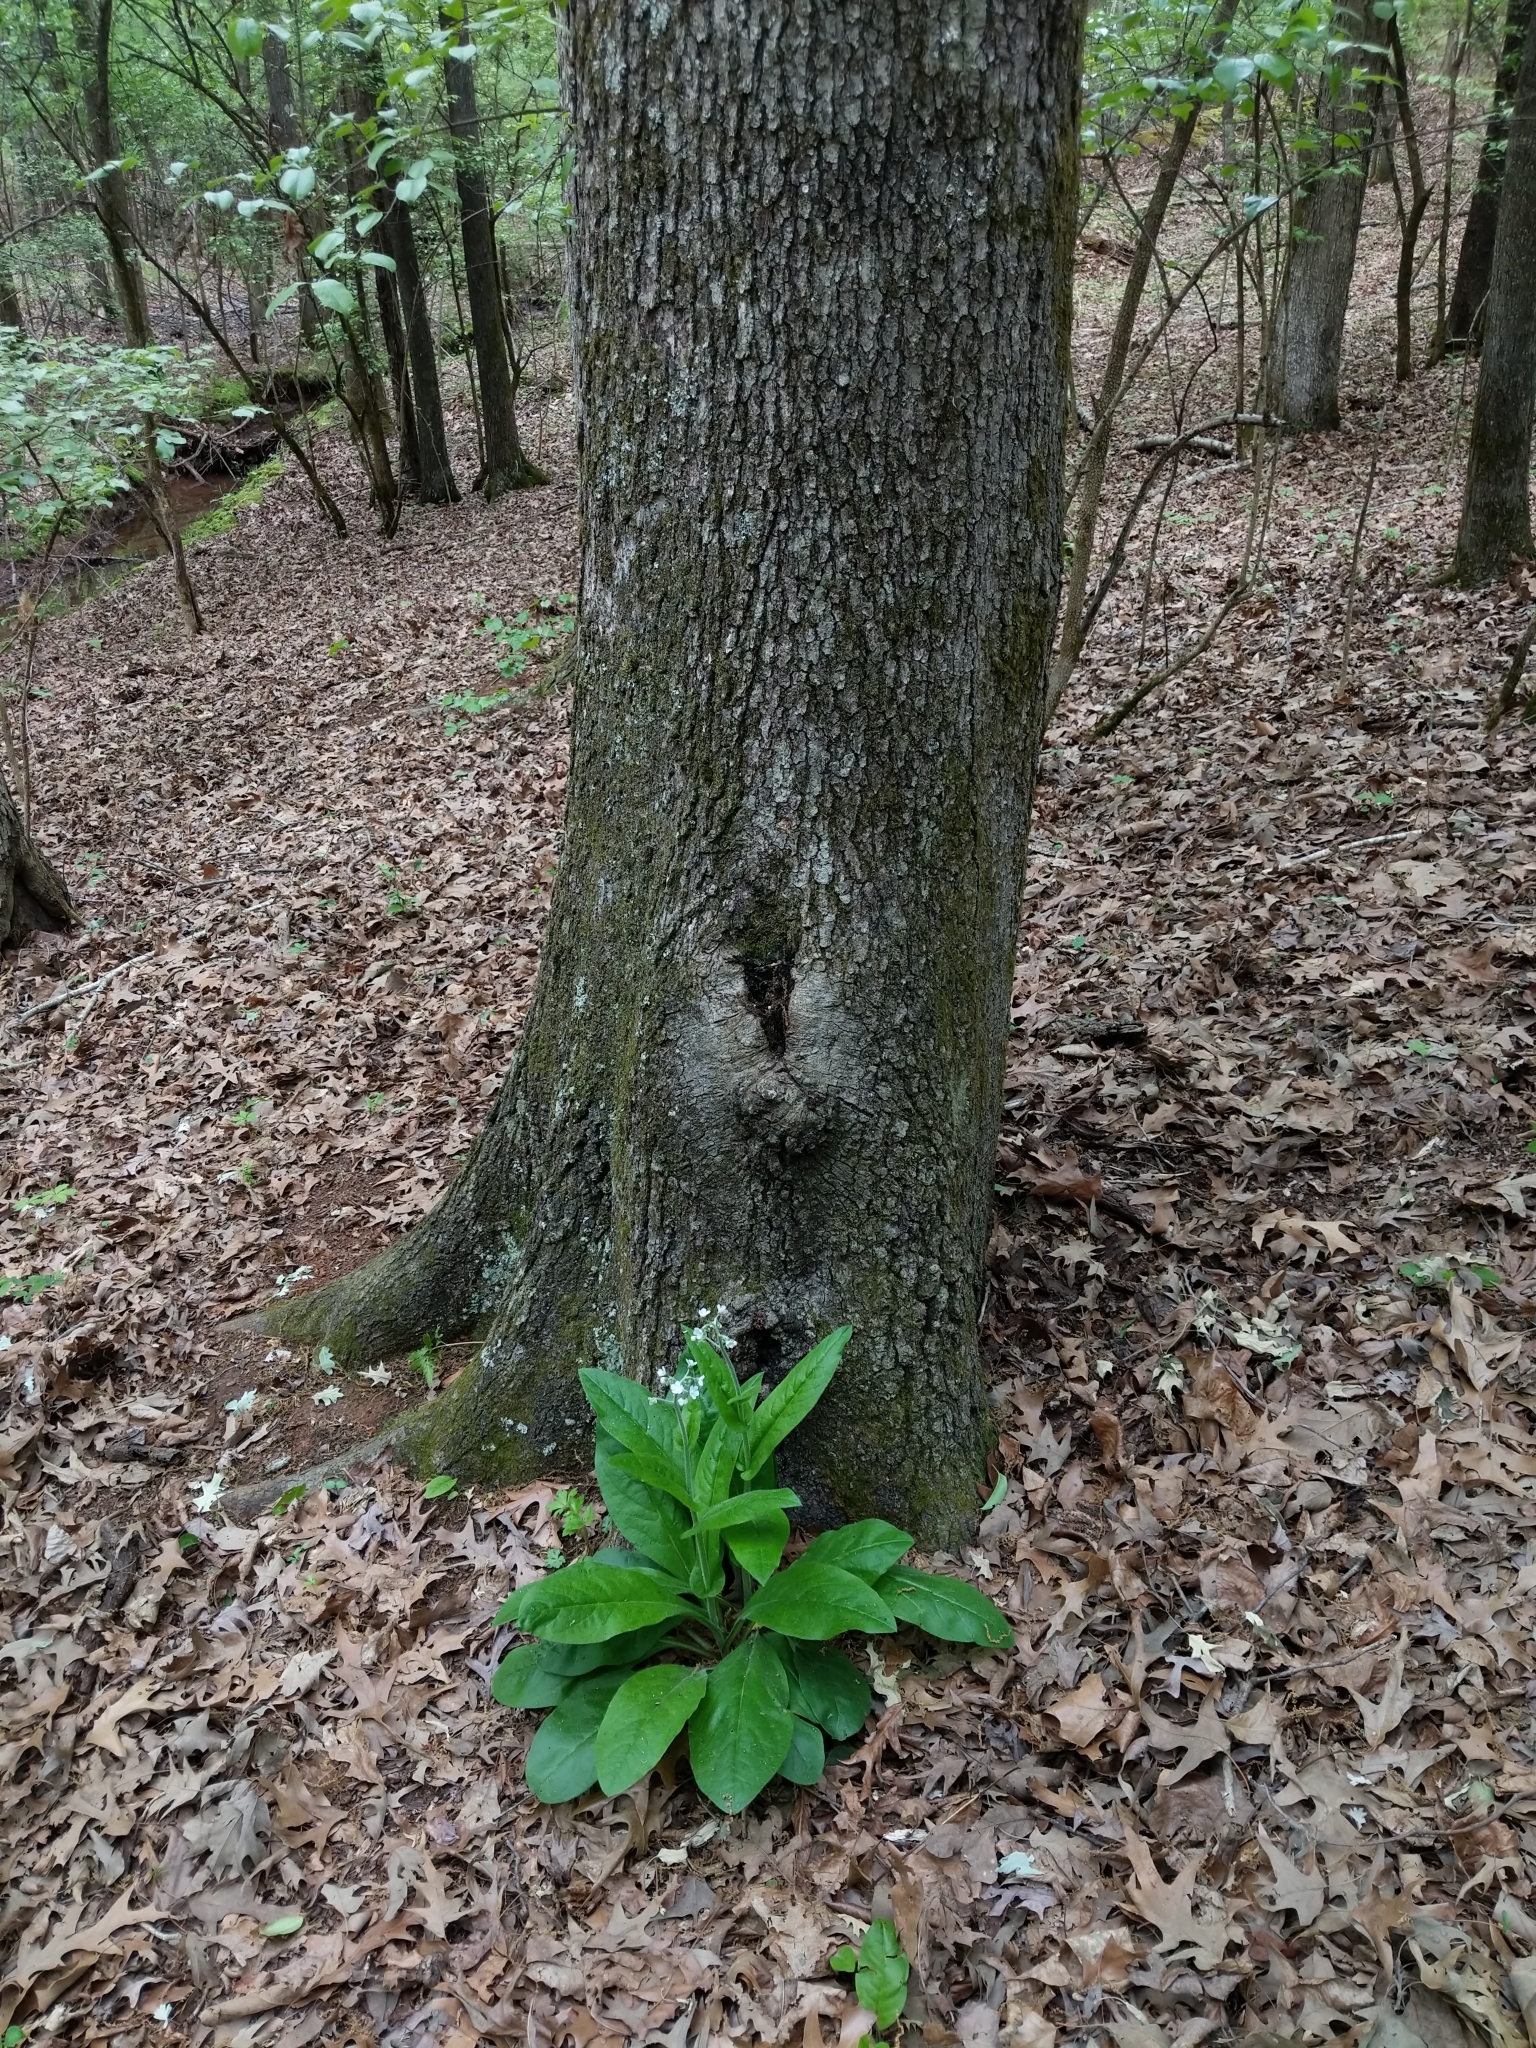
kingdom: Plantae
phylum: Tracheophyta
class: Magnoliopsida
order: Boraginales
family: Boraginaceae
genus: Andersonglossum
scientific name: Andersonglossum virginianum
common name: Wild comfrey
